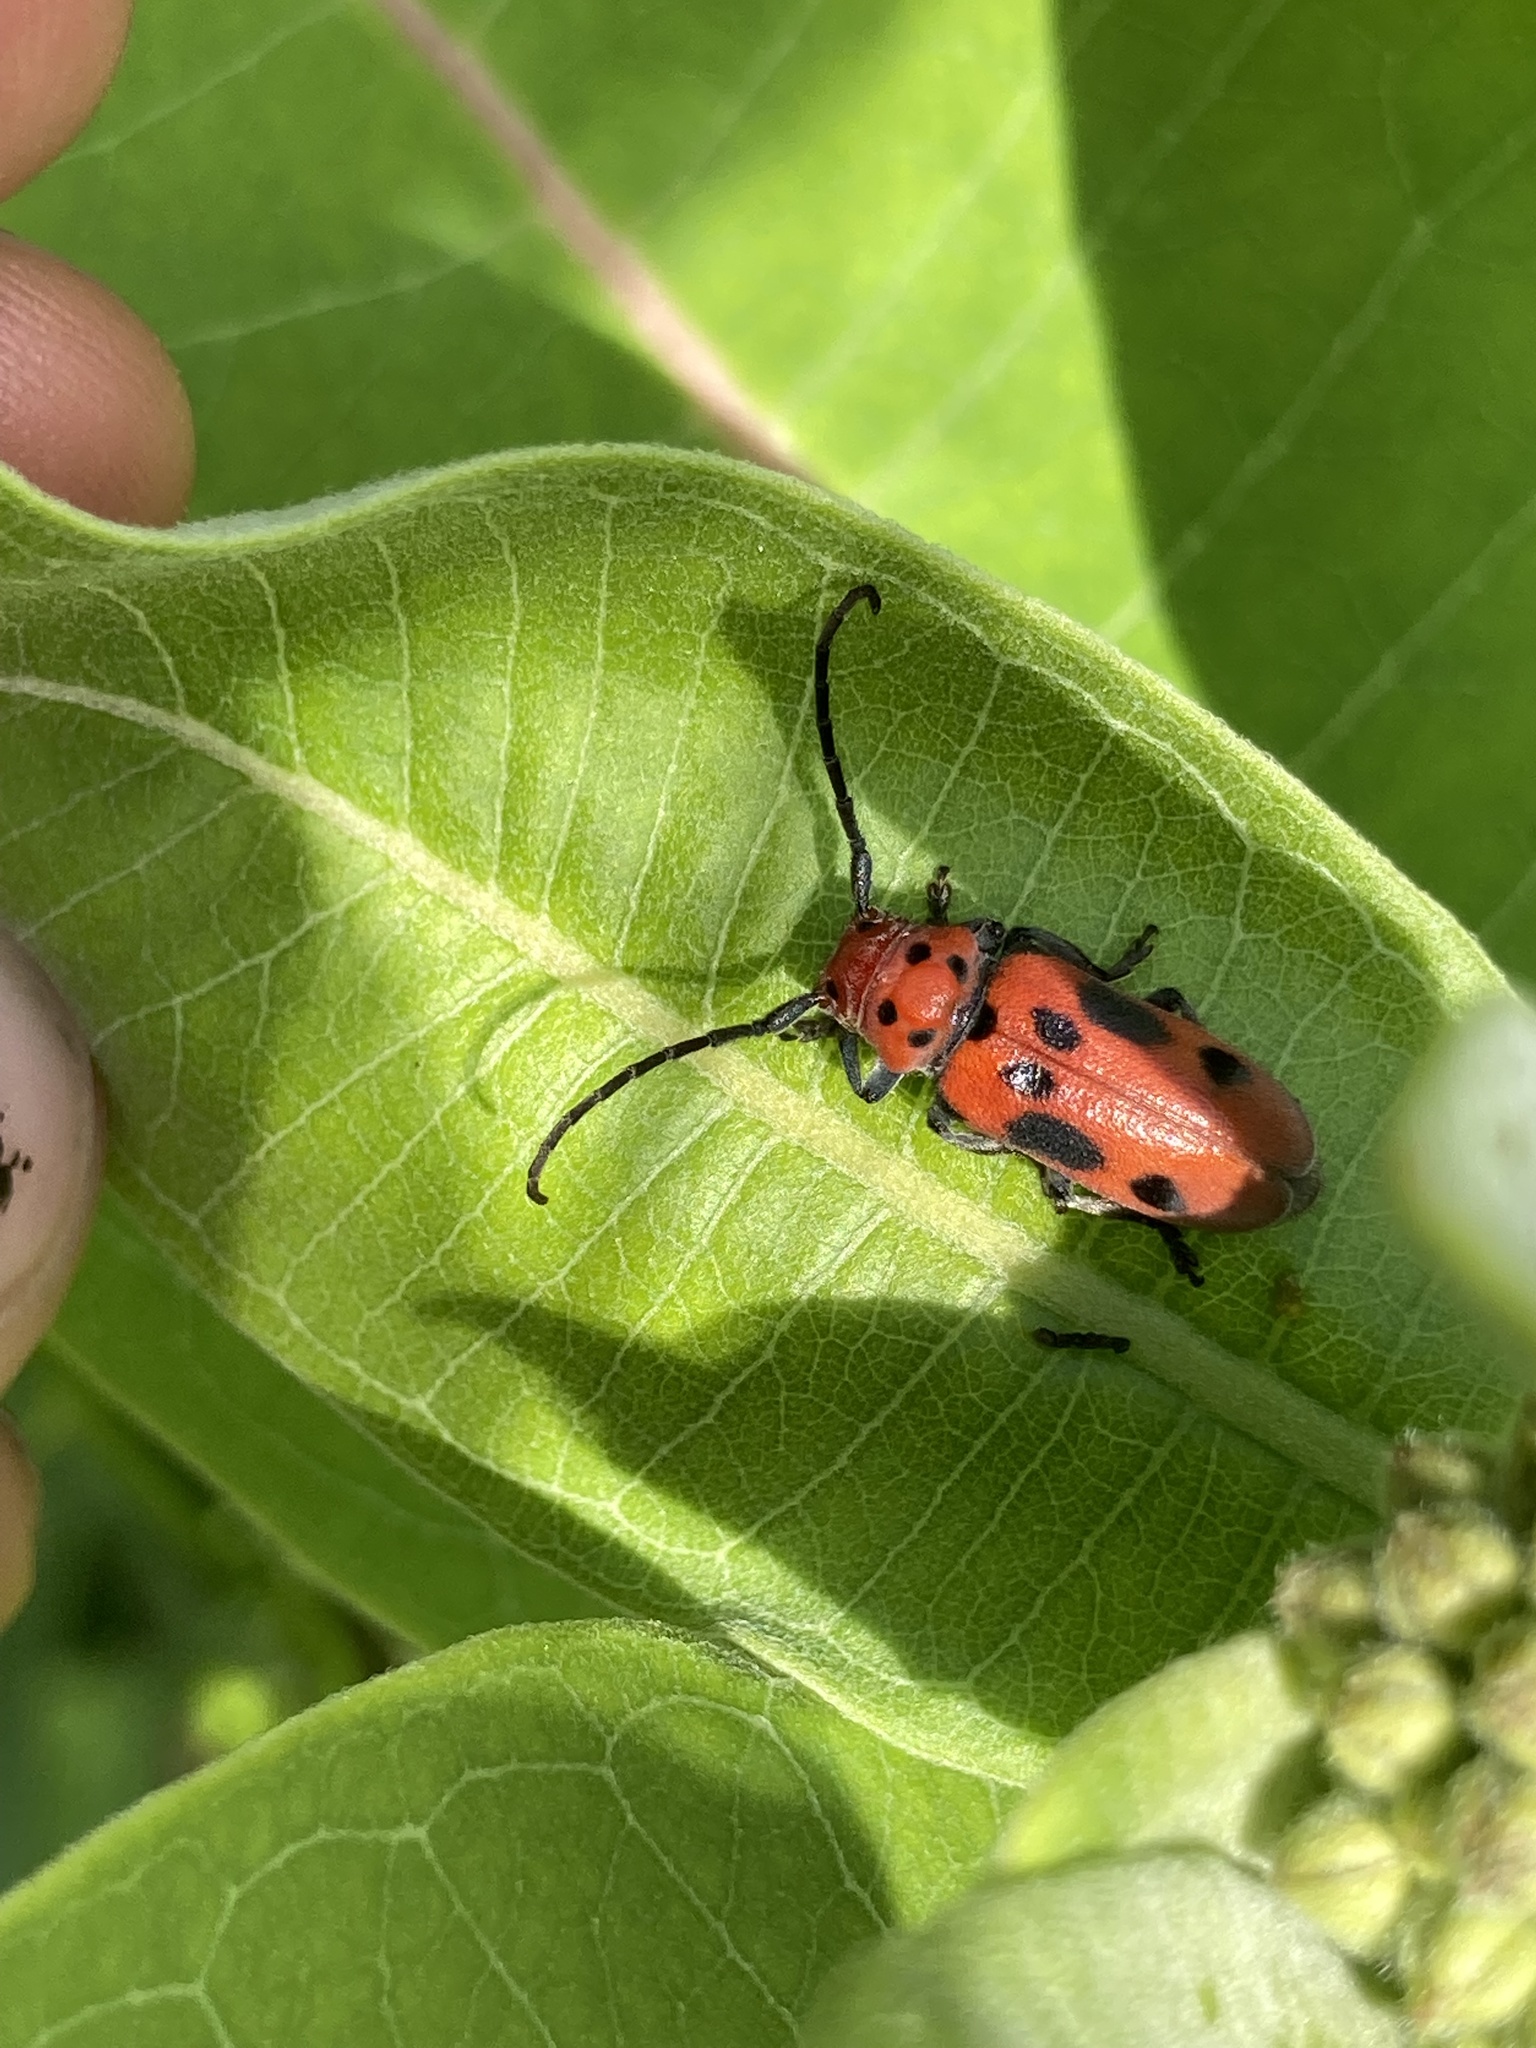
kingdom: Animalia
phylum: Arthropoda
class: Insecta
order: Coleoptera
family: Cerambycidae
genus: Tetraopes
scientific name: Tetraopes tetrophthalmus
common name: Red milkweed beetle
